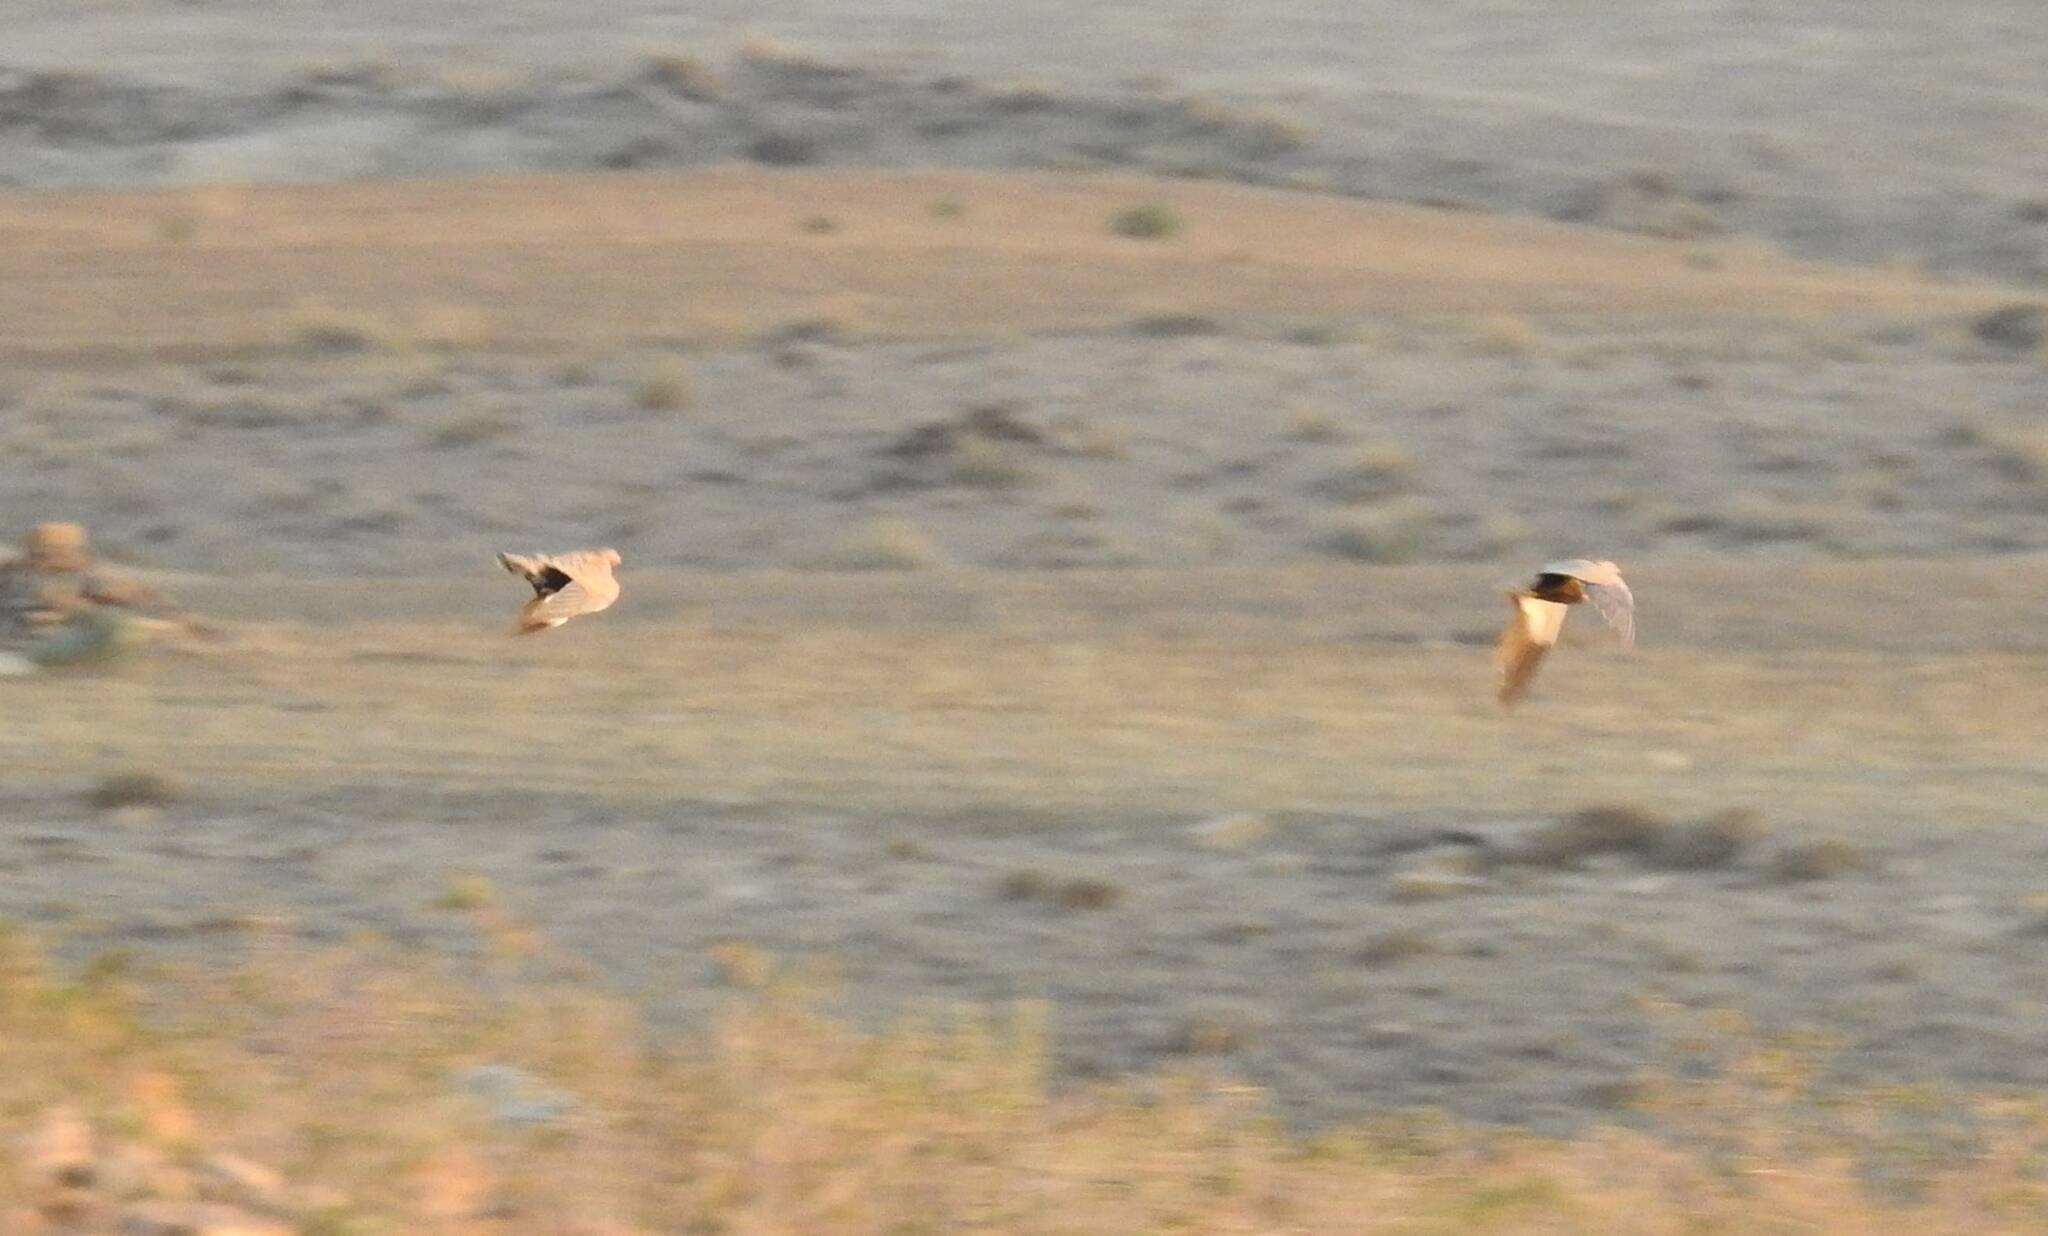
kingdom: Animalia
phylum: Chordata
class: Aves
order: Pteroclidiformes
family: Pteroclididae
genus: Pterocles
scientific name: Pterocles orientalis
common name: Black-bellied sandgrouse
